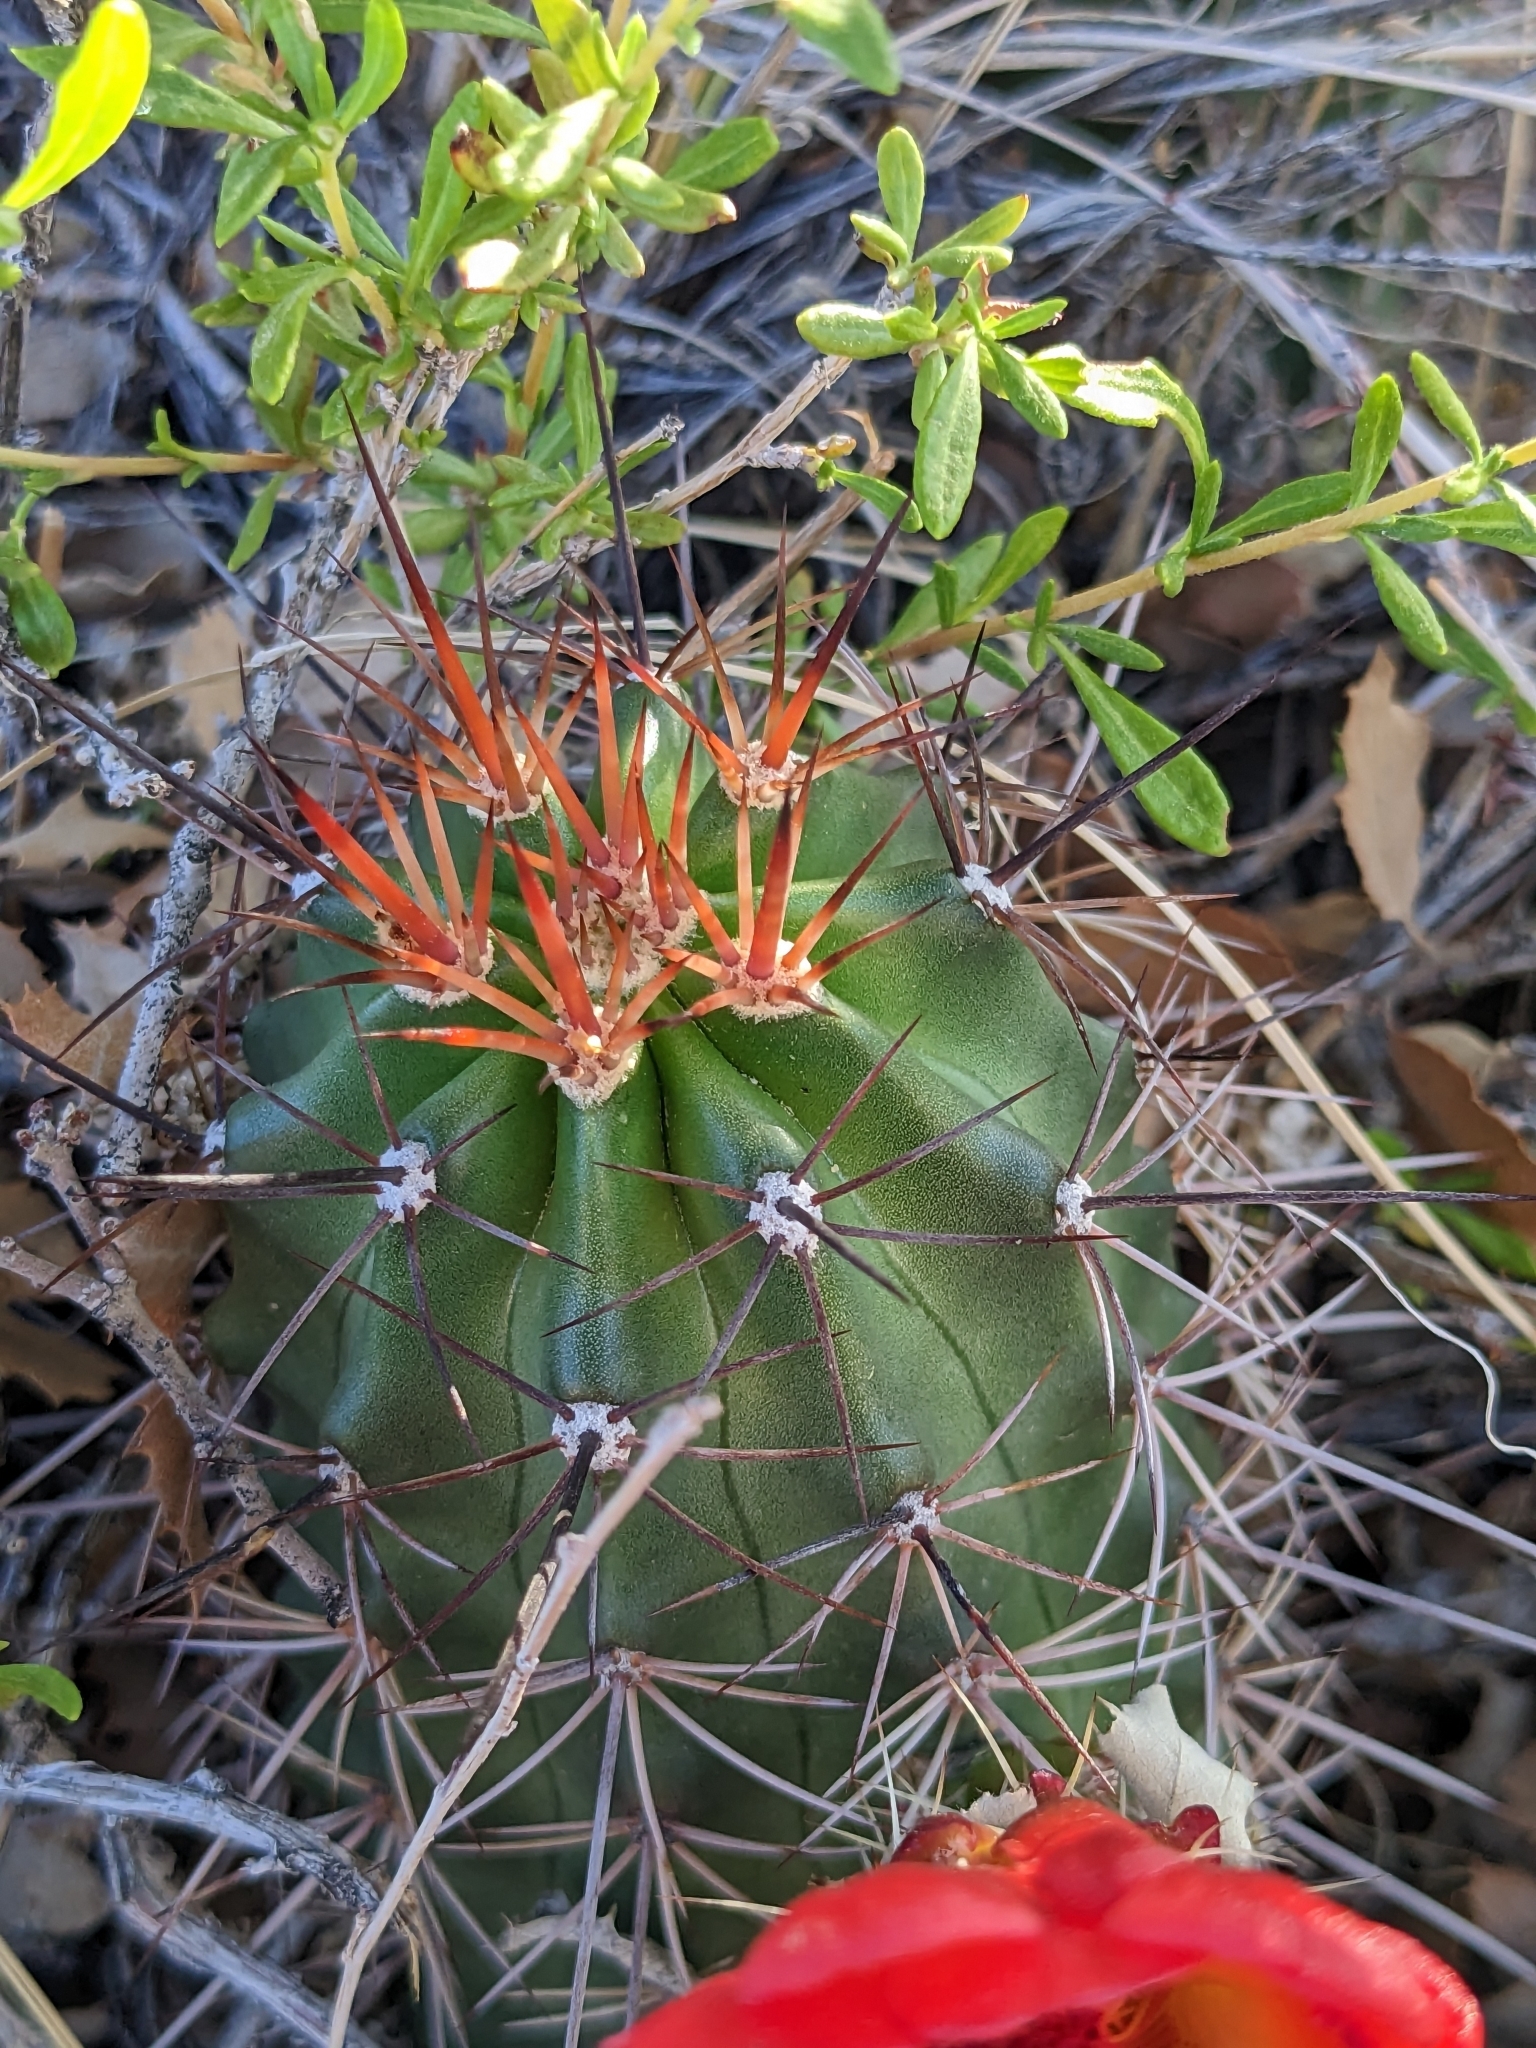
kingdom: Plantae
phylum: Tracheophyta
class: Magnoliopsida
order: Caryophyllales
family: Cactaceae
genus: Echinocereus
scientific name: Echinocereus triglochidiatus
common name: Claretcup hedgehog
